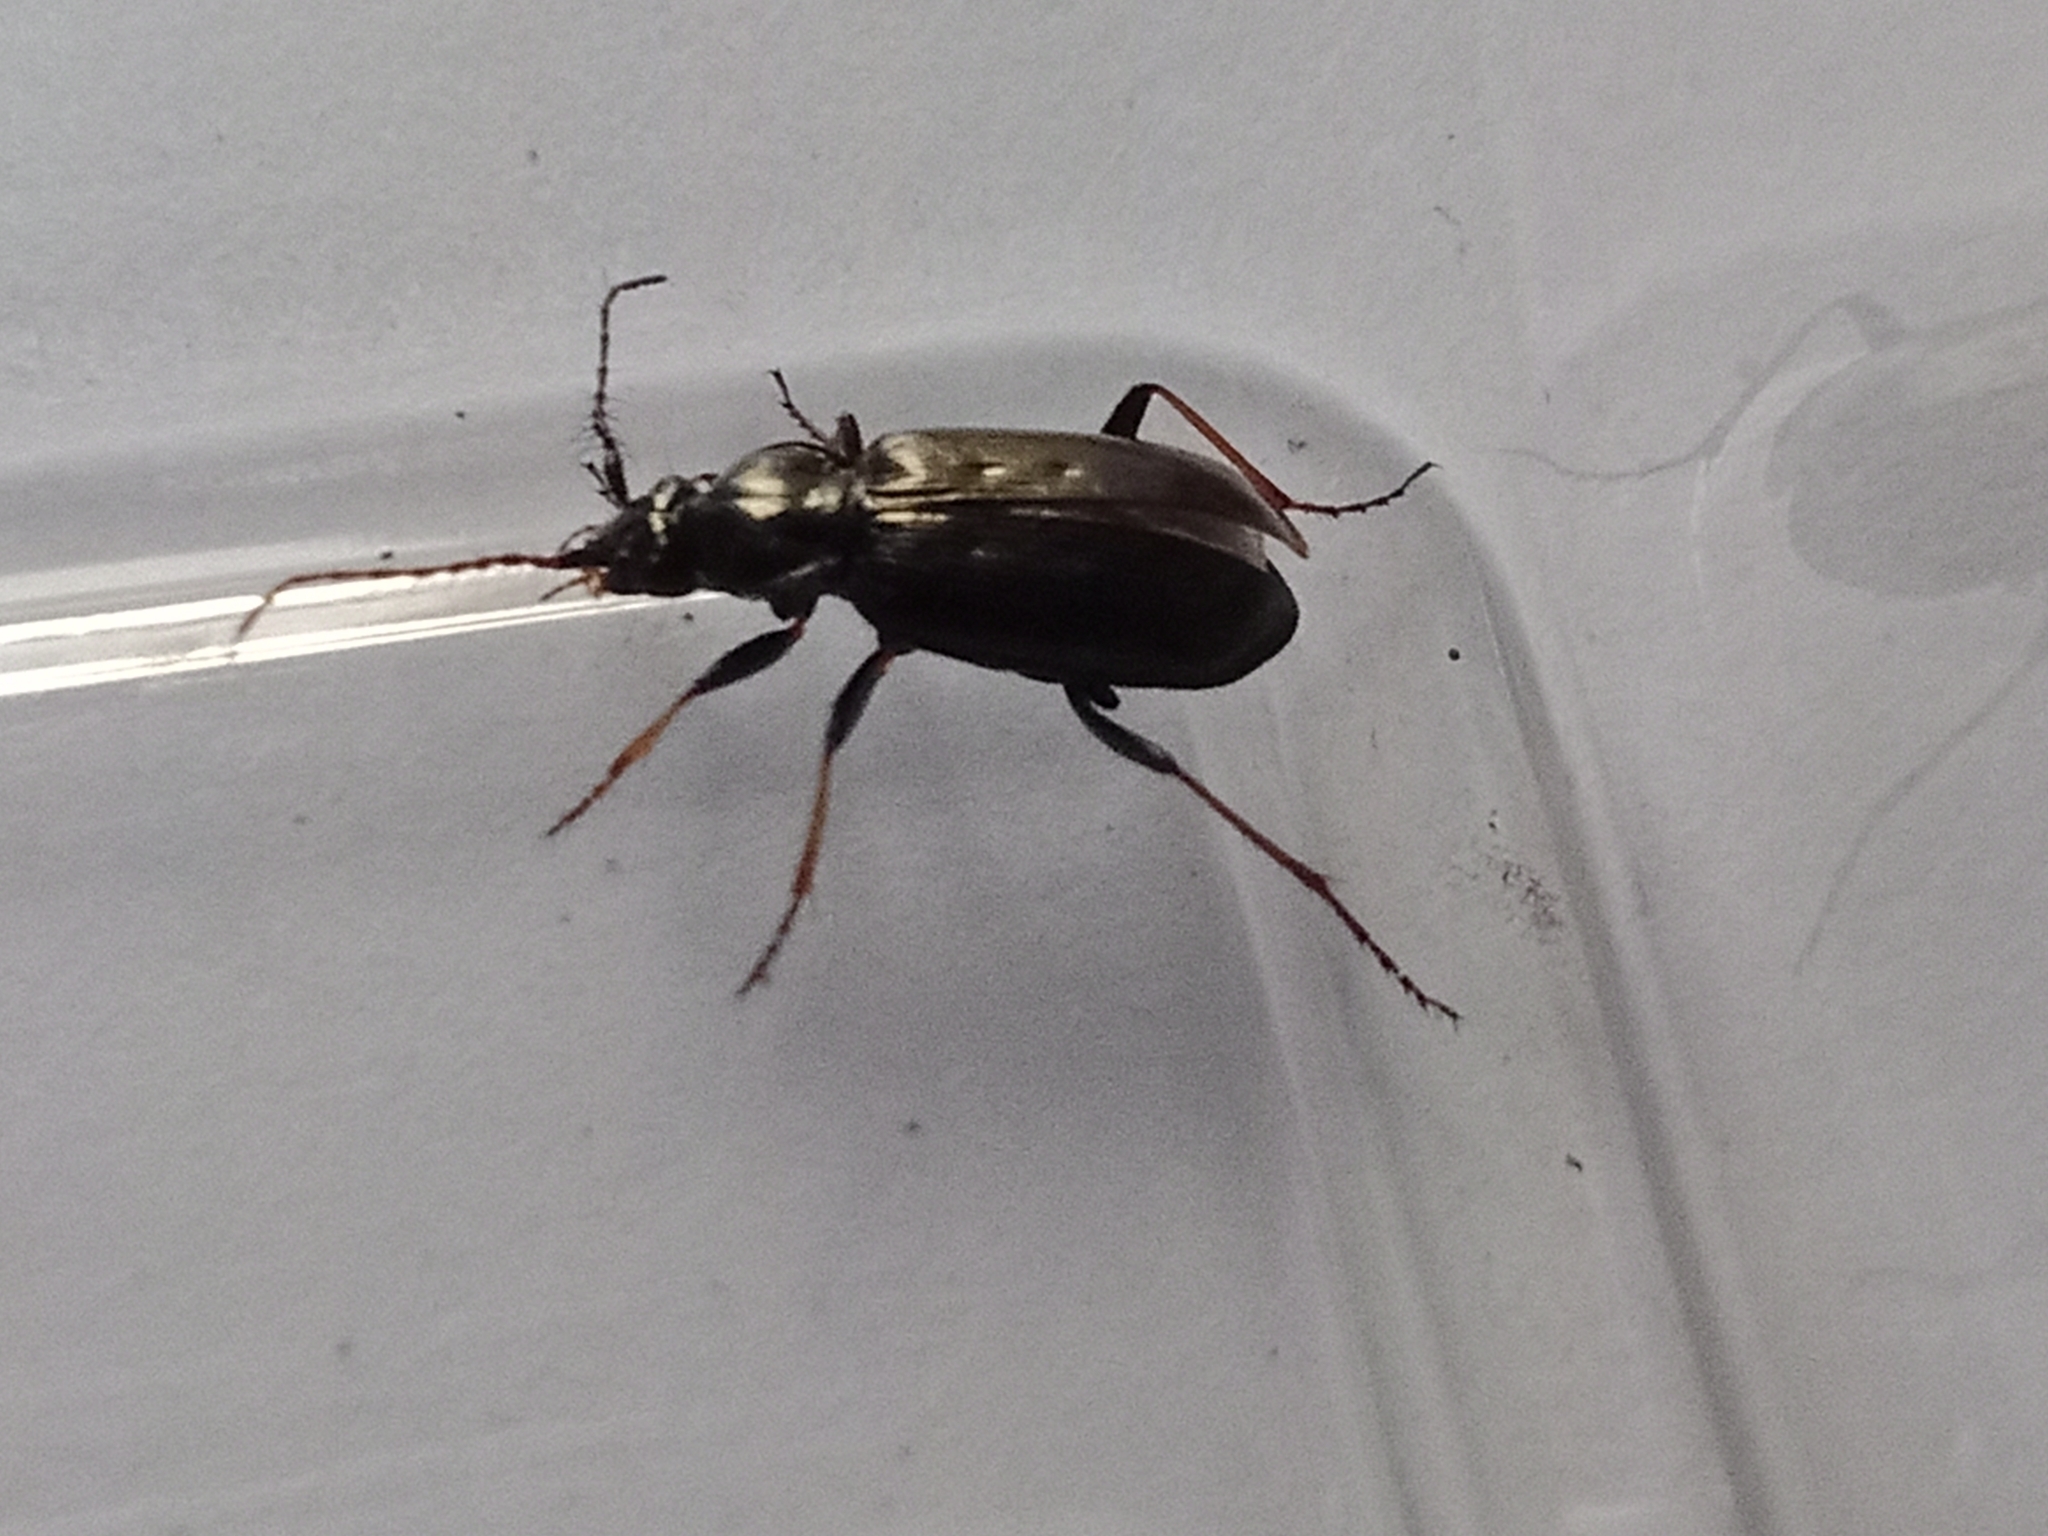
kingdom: Animalia
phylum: Arthropoda
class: Insecta
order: Coleoptera
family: Carabidae
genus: Loricera
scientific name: Loricera pilicornis
